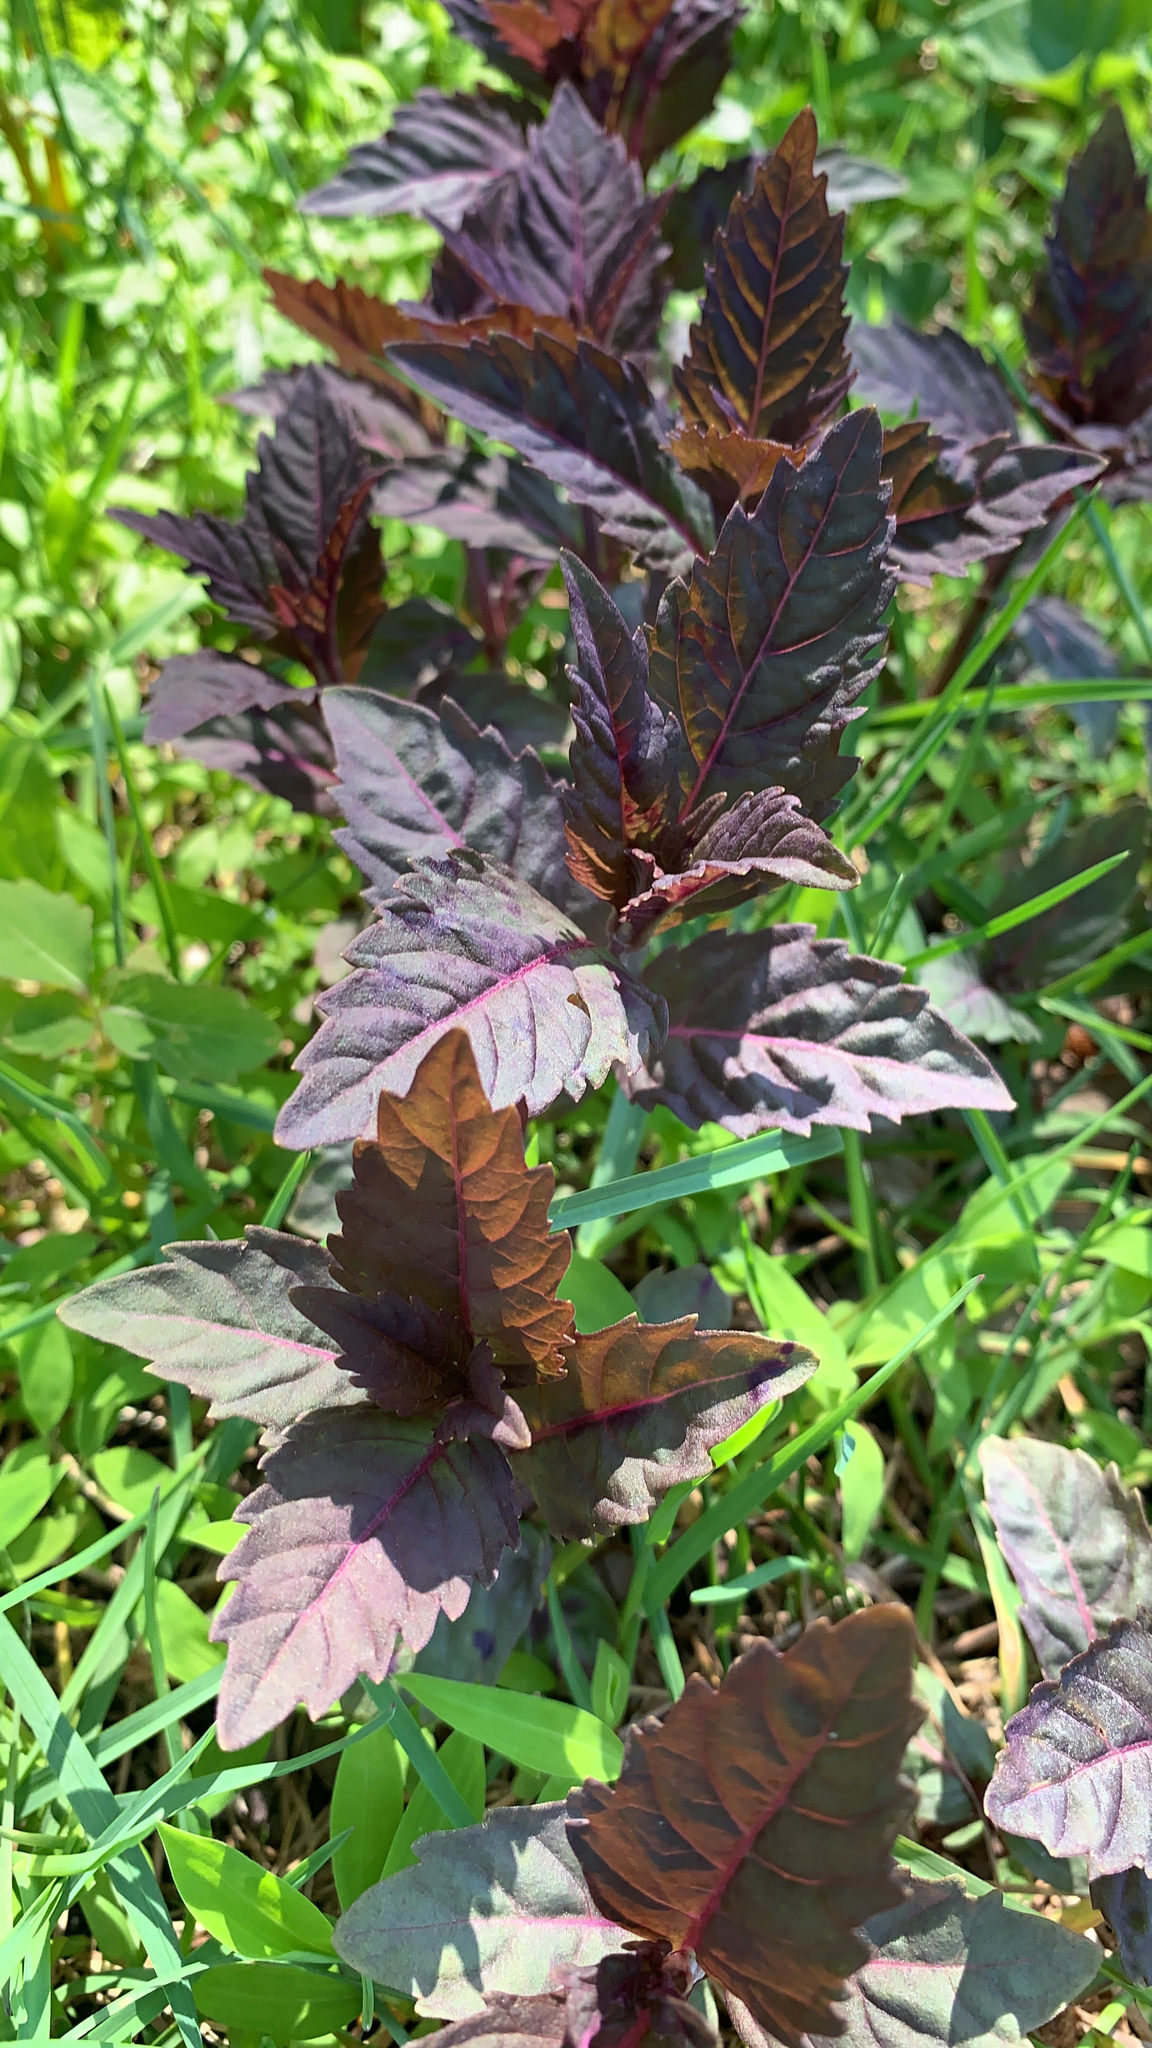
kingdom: Plantae
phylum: Tracheophyta
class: Magnoliopsida
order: Lamiales
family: Lamiaceae
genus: Lycopus
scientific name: Lycopus uniflorus
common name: Northern bugleweed
